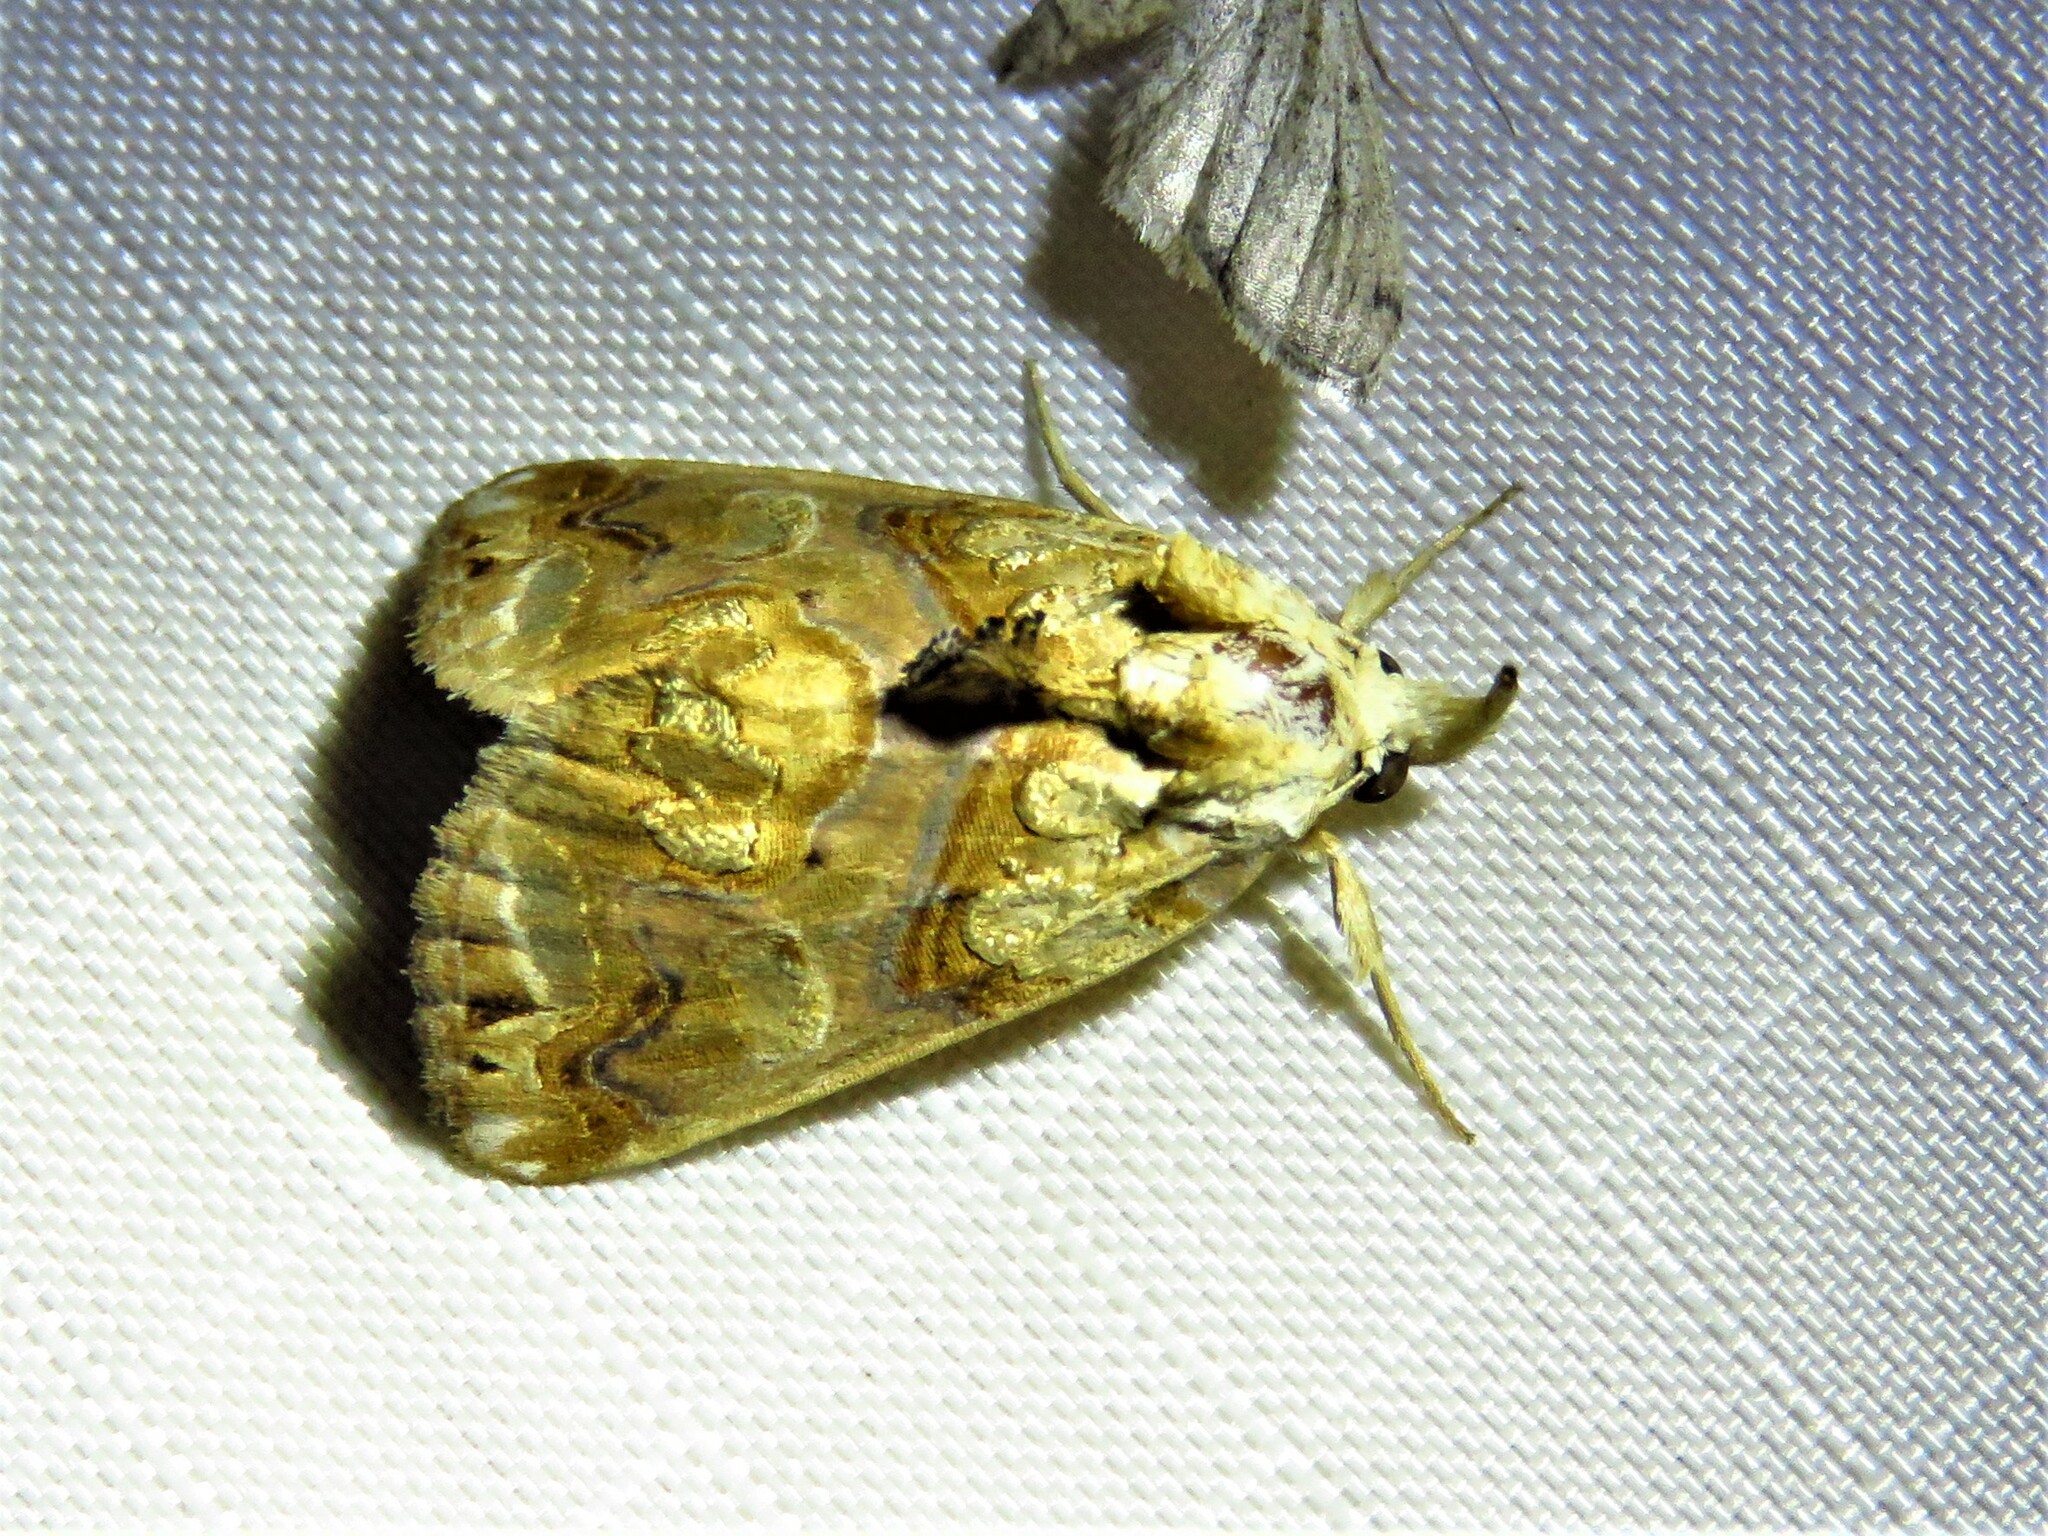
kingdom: Animalia
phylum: Arthropoda
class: Insecta
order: Lepidoptera
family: Erebidae
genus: Plusiodonta
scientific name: Plusiodonta compressipalpis
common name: Moonseed moth
